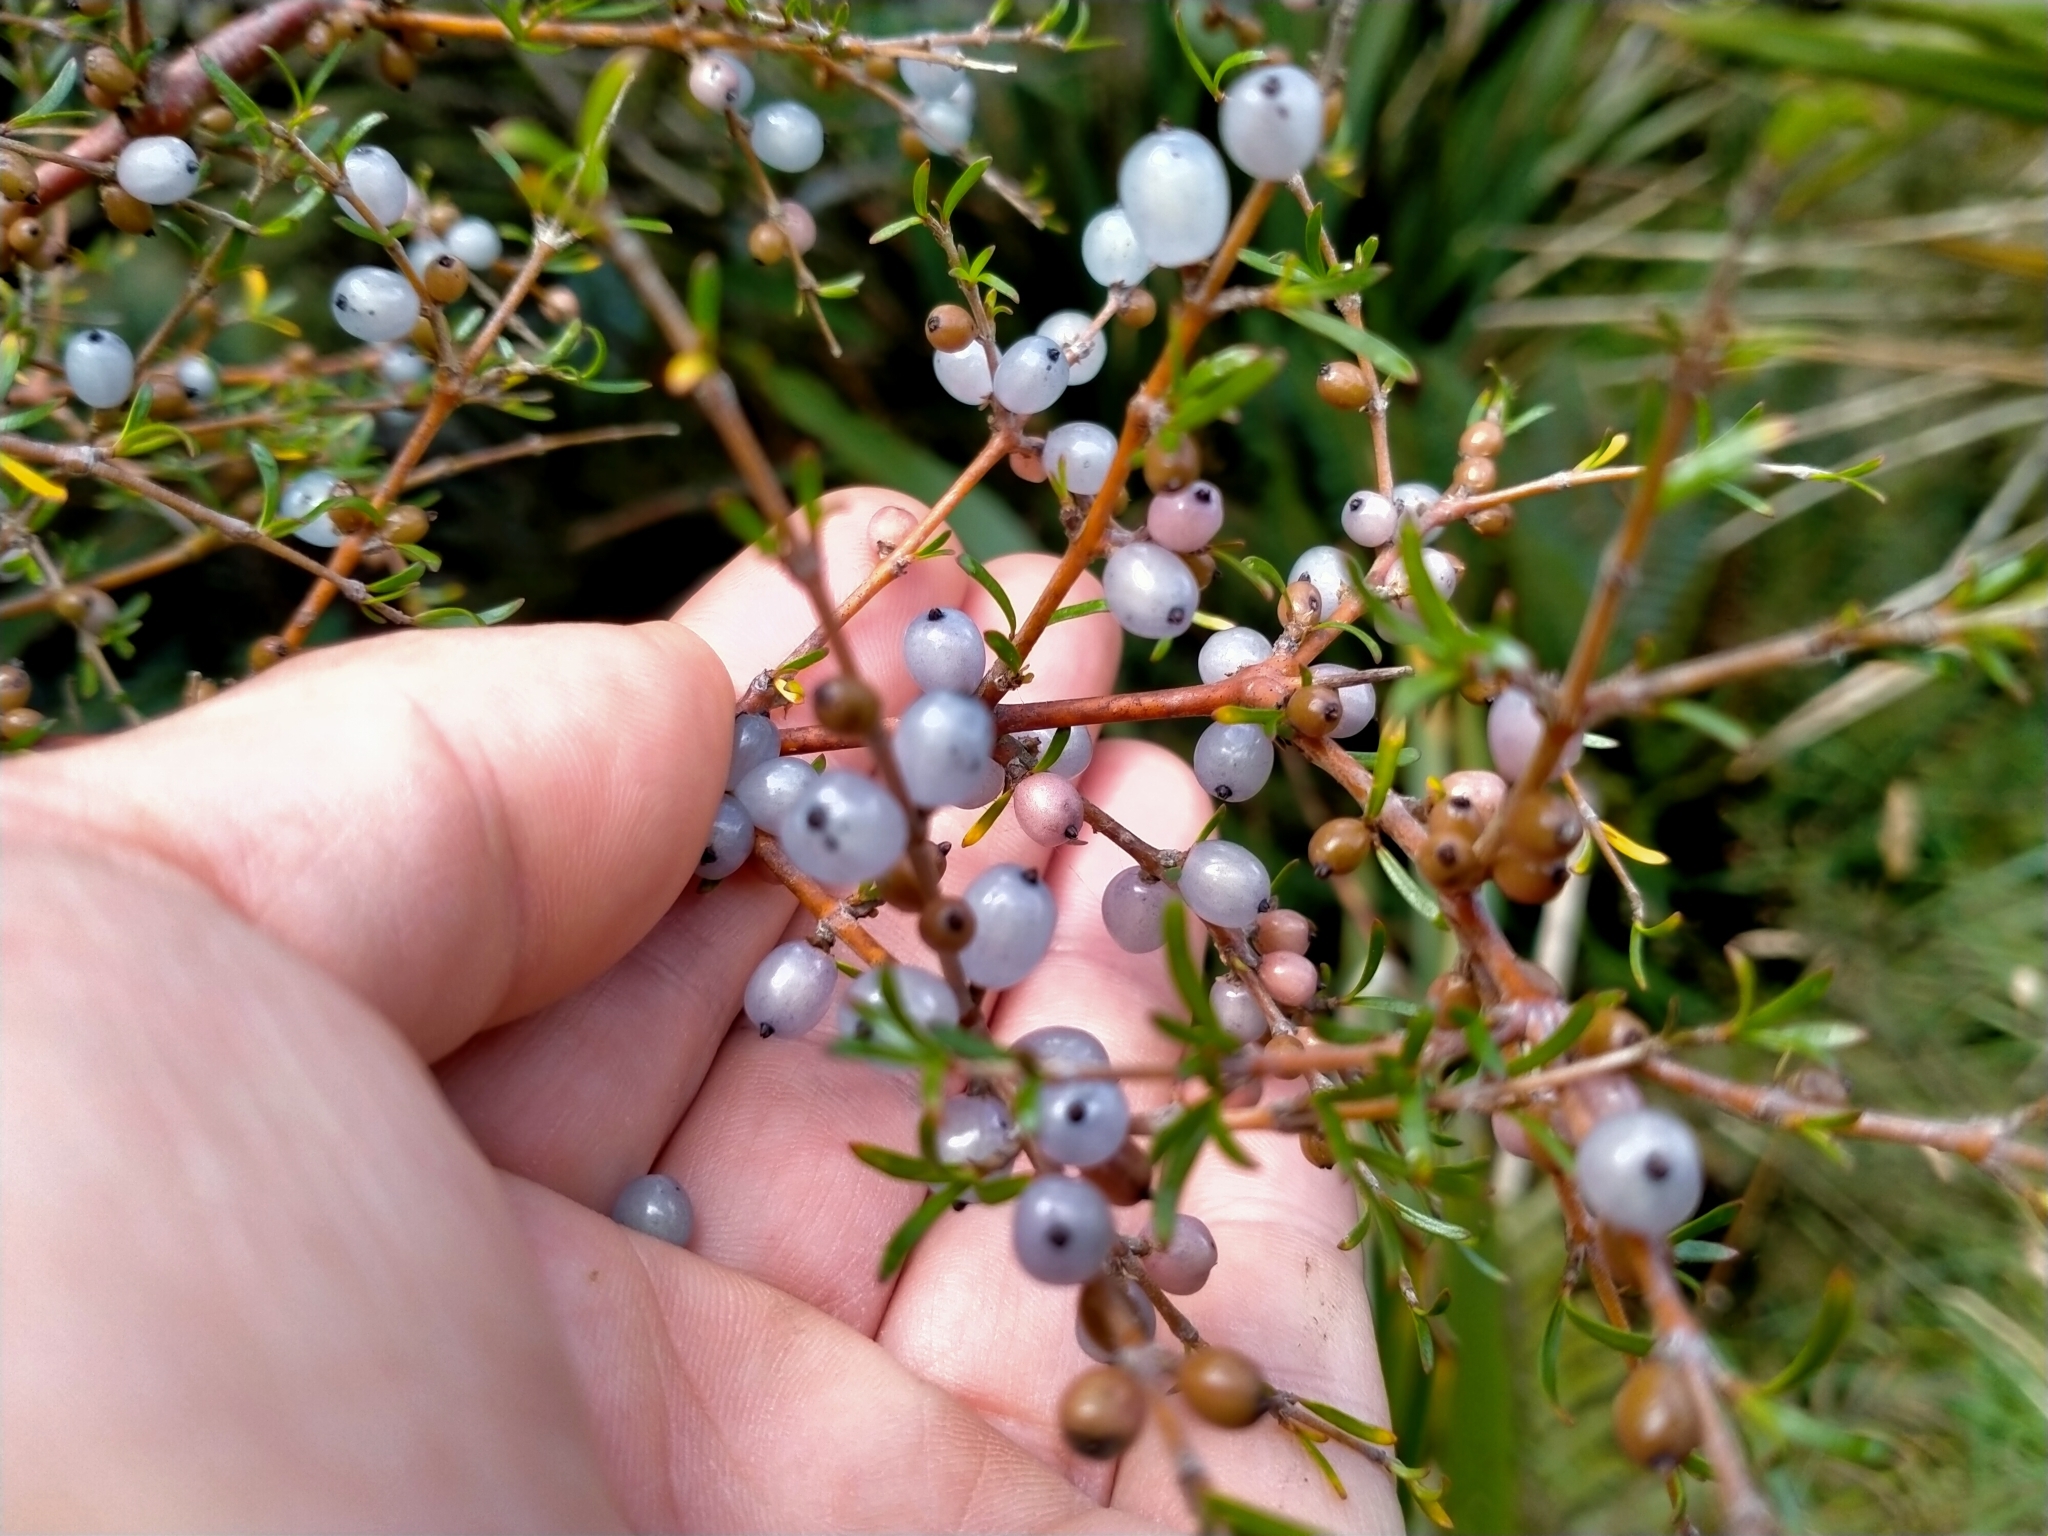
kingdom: Plantae
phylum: Tracheophyta
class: Magnoliopsida
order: Gentianales
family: Rubiaceae
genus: Coprosma
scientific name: Coprosma rugosa
